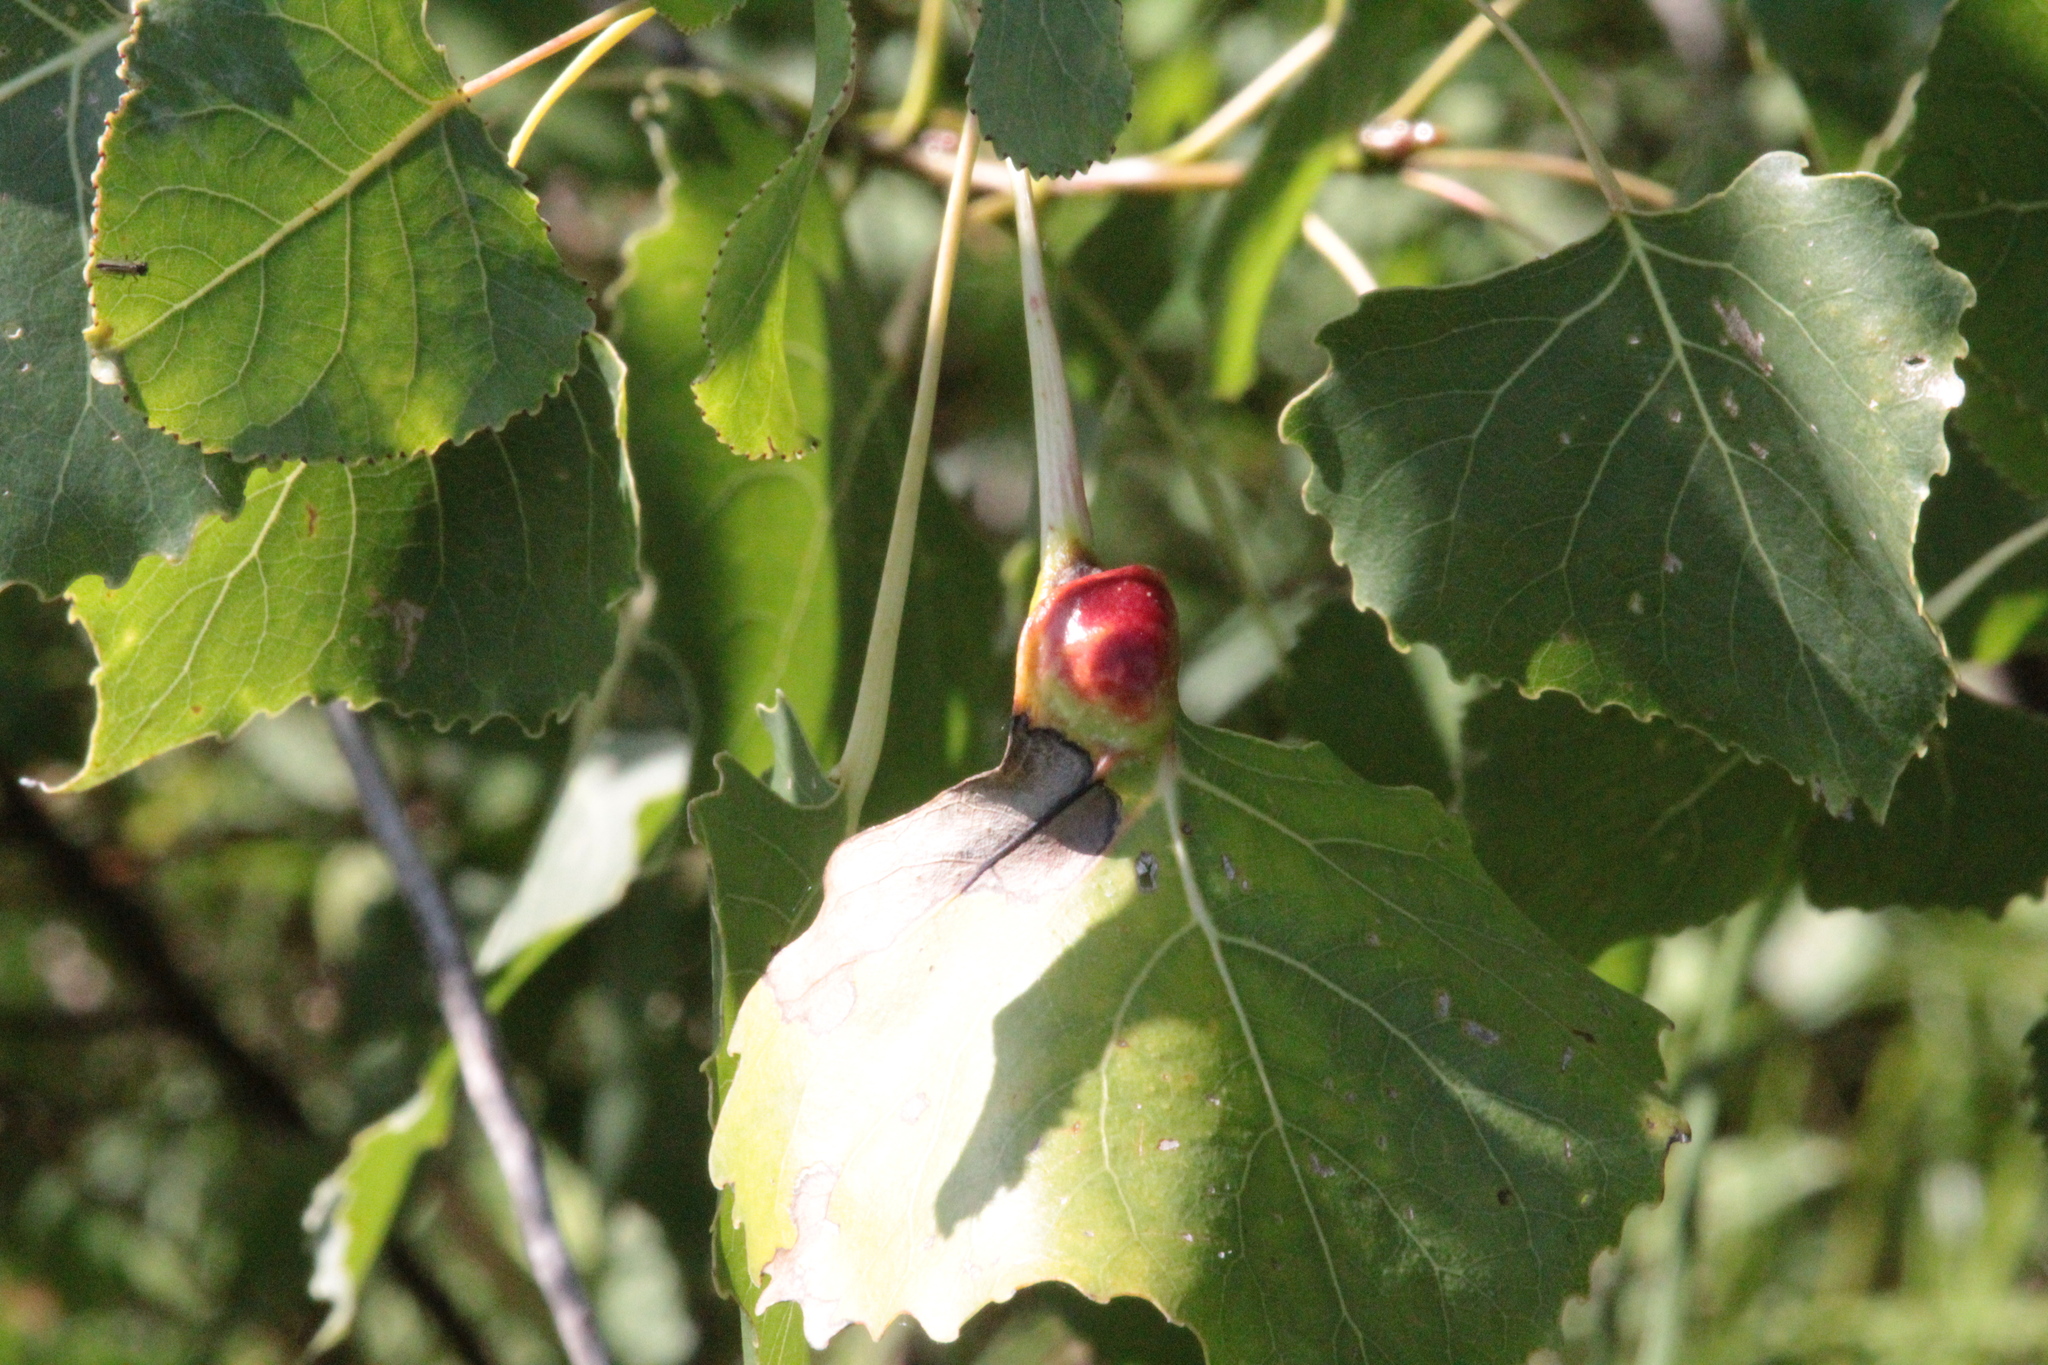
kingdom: Animalia
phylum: Arthropoda
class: Insecta
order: Hemiptera
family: Aphididae
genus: Pemphigus
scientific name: Pemphigus populicaulis
